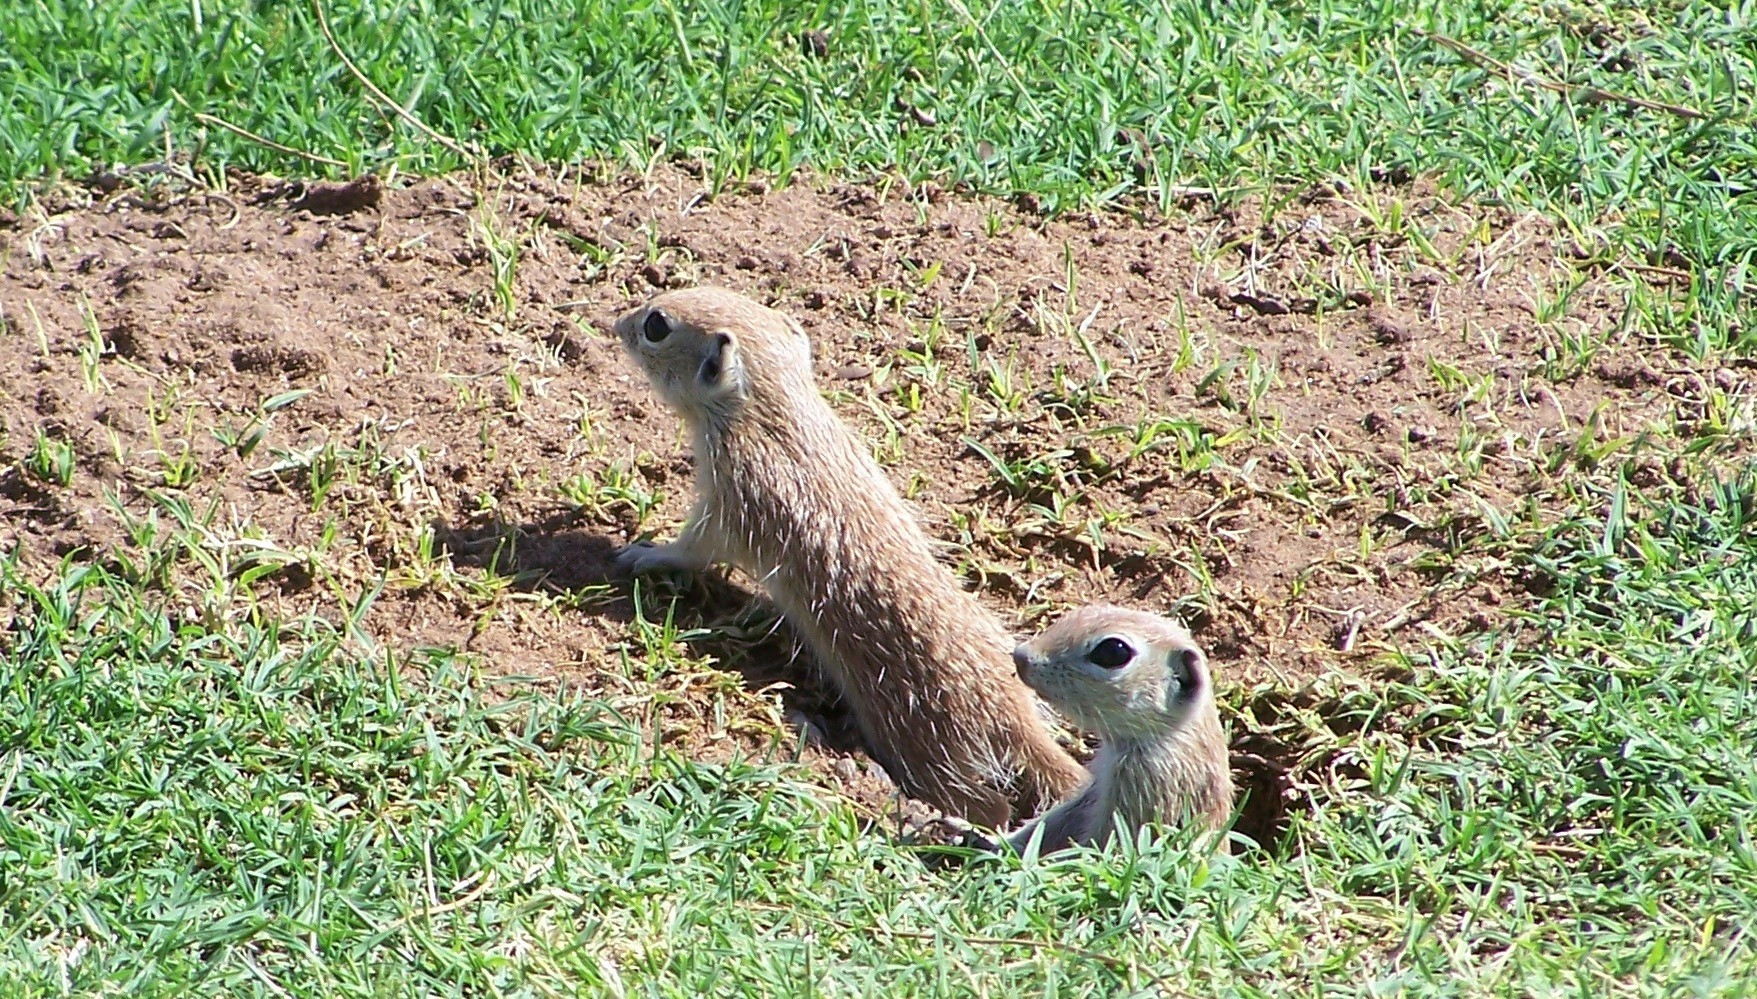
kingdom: Animalia
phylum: Chordata
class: Mammalia
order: Rodentia
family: Sciuridae
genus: Xerospermophilus
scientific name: Xerospermophilus spilosoma
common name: Spotted ground squirrel
